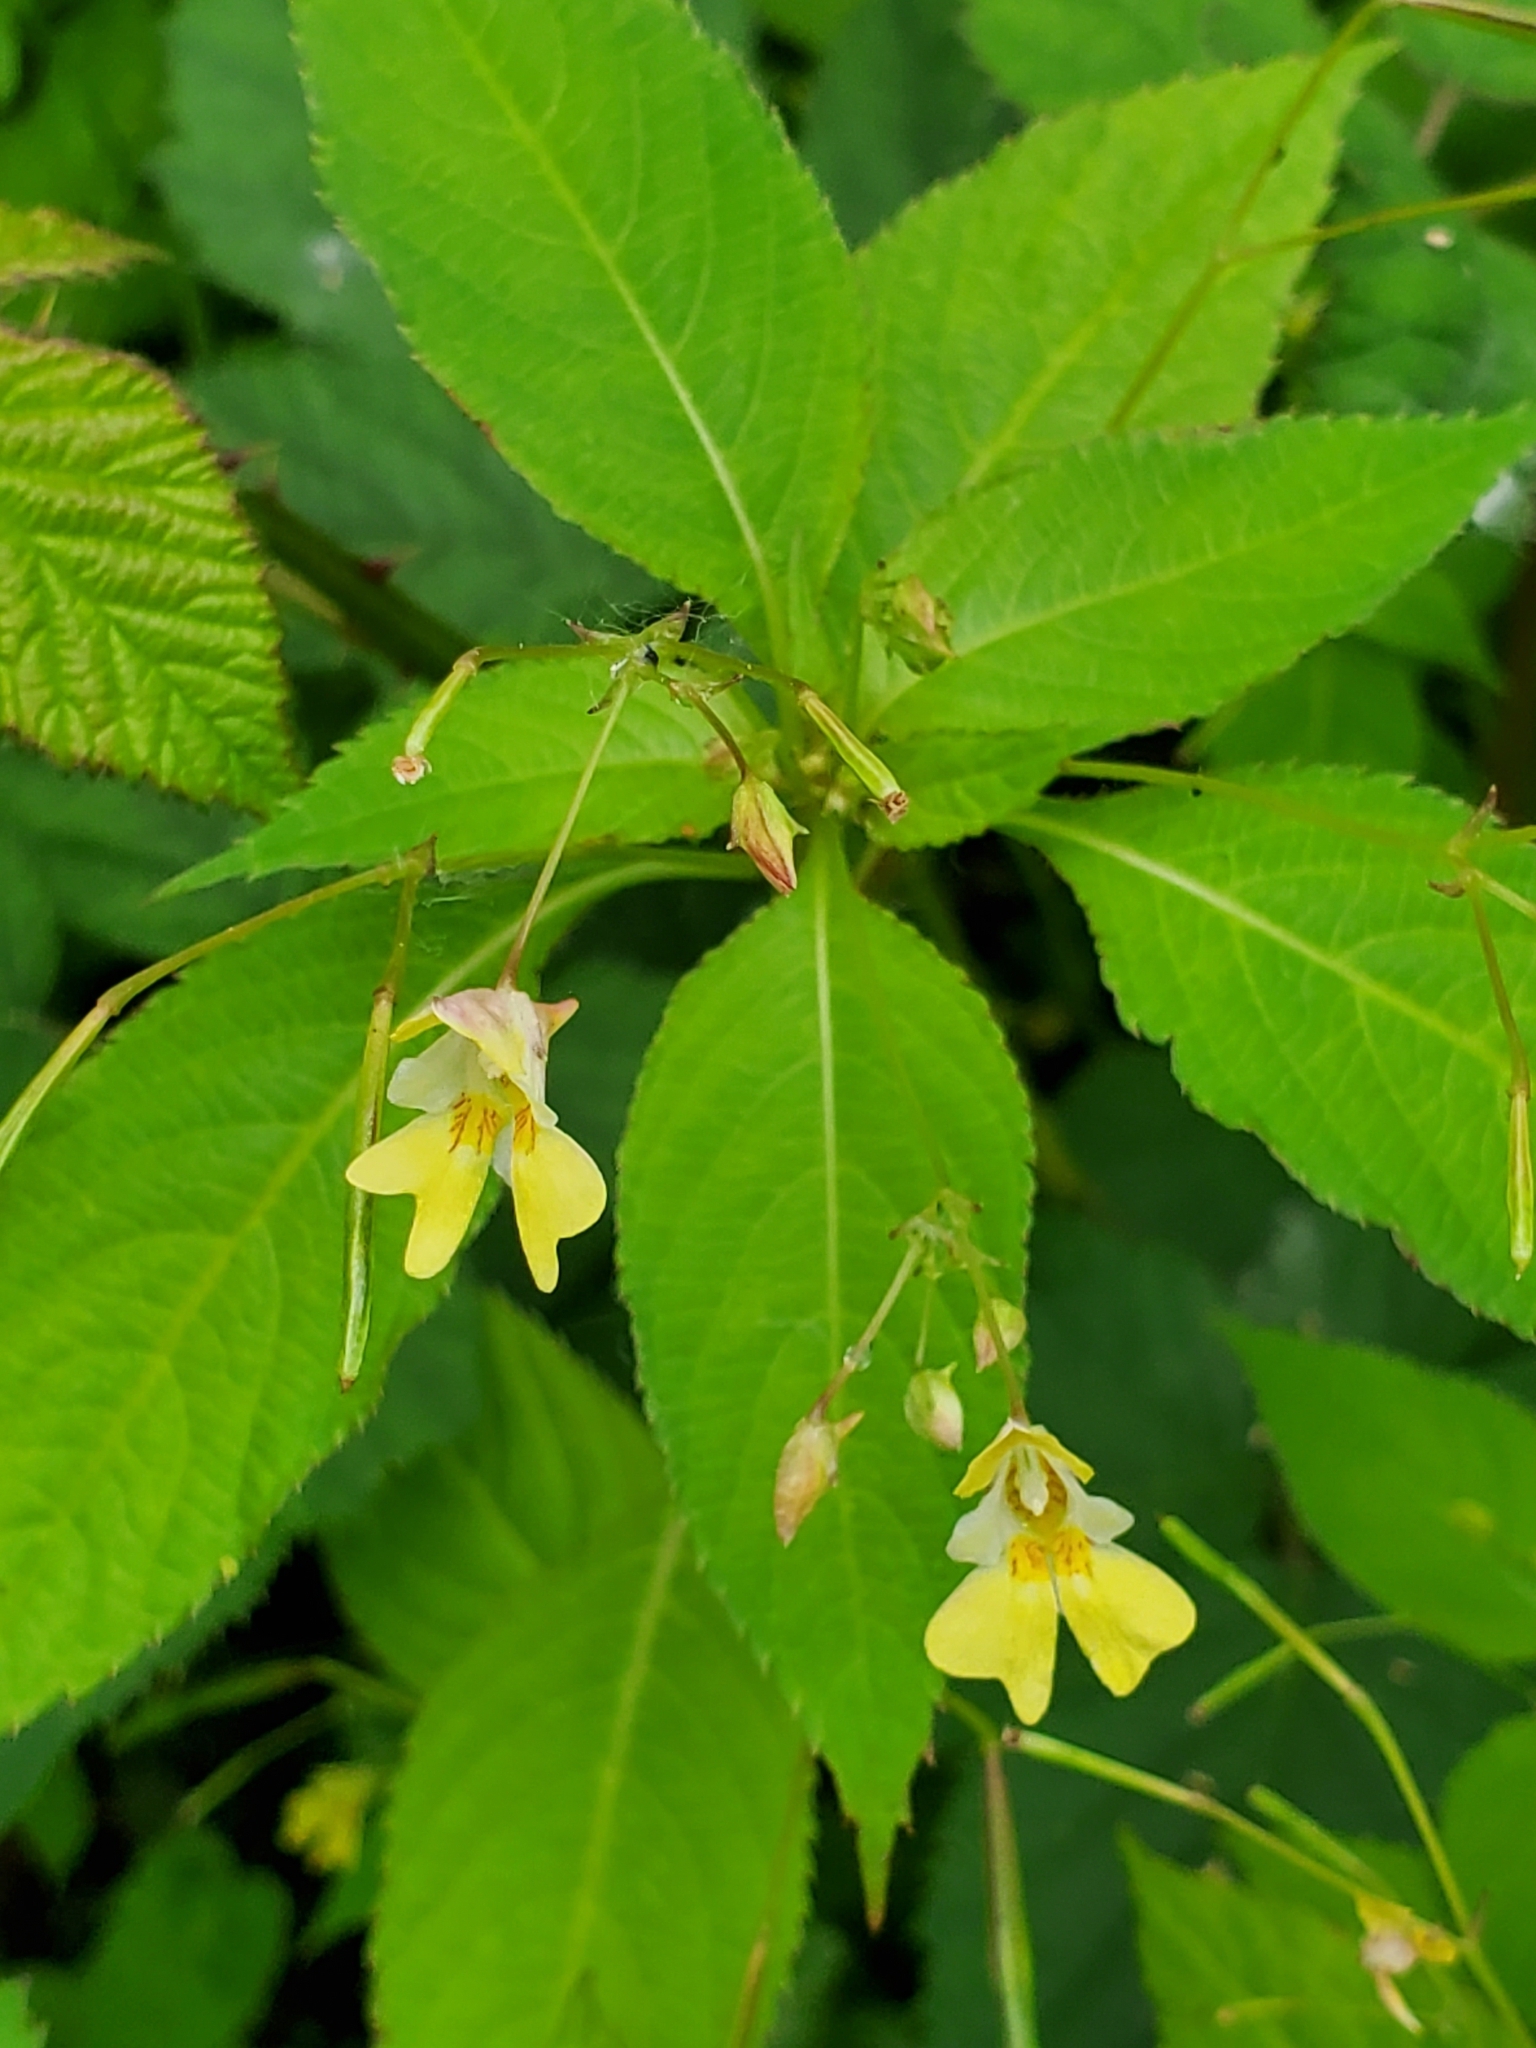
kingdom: Plantae
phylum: Tracheophyta
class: Magnoliopsida
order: Ericales
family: Balsaminaceae
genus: Impatiens
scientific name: Impatiens parviflora
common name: Small balsam
